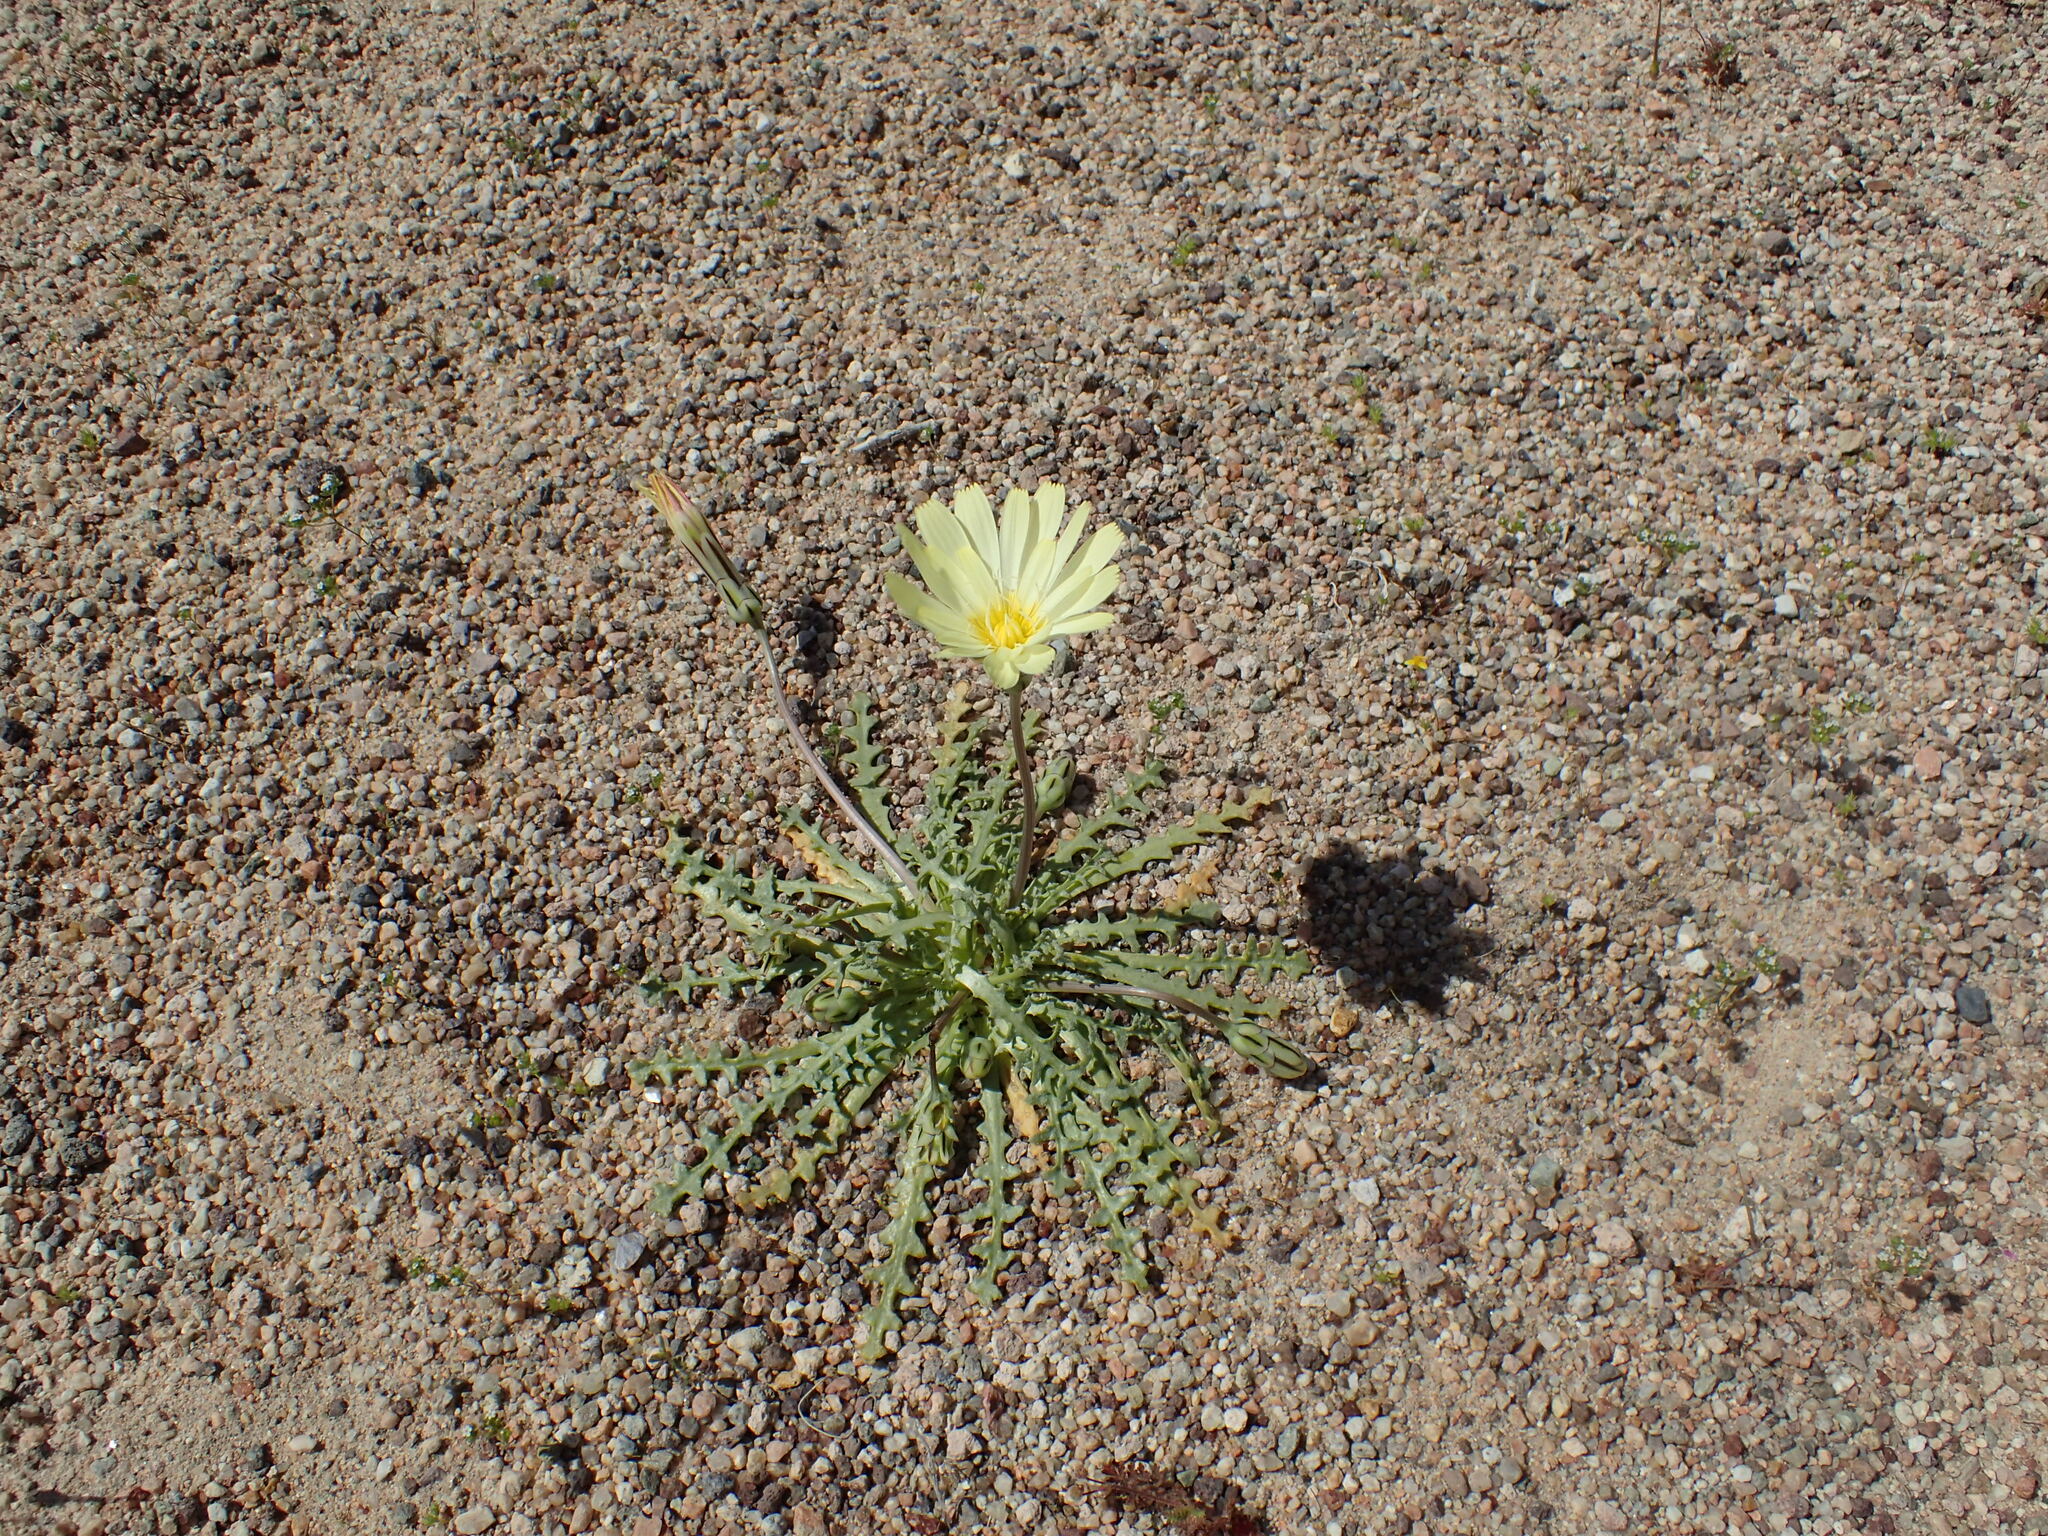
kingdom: Plantae
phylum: Tracheophyta
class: Magnoliopsida
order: Asterales
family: Asteraceae
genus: Anisocoma
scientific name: Anisocoma acaulis
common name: Scalebud
